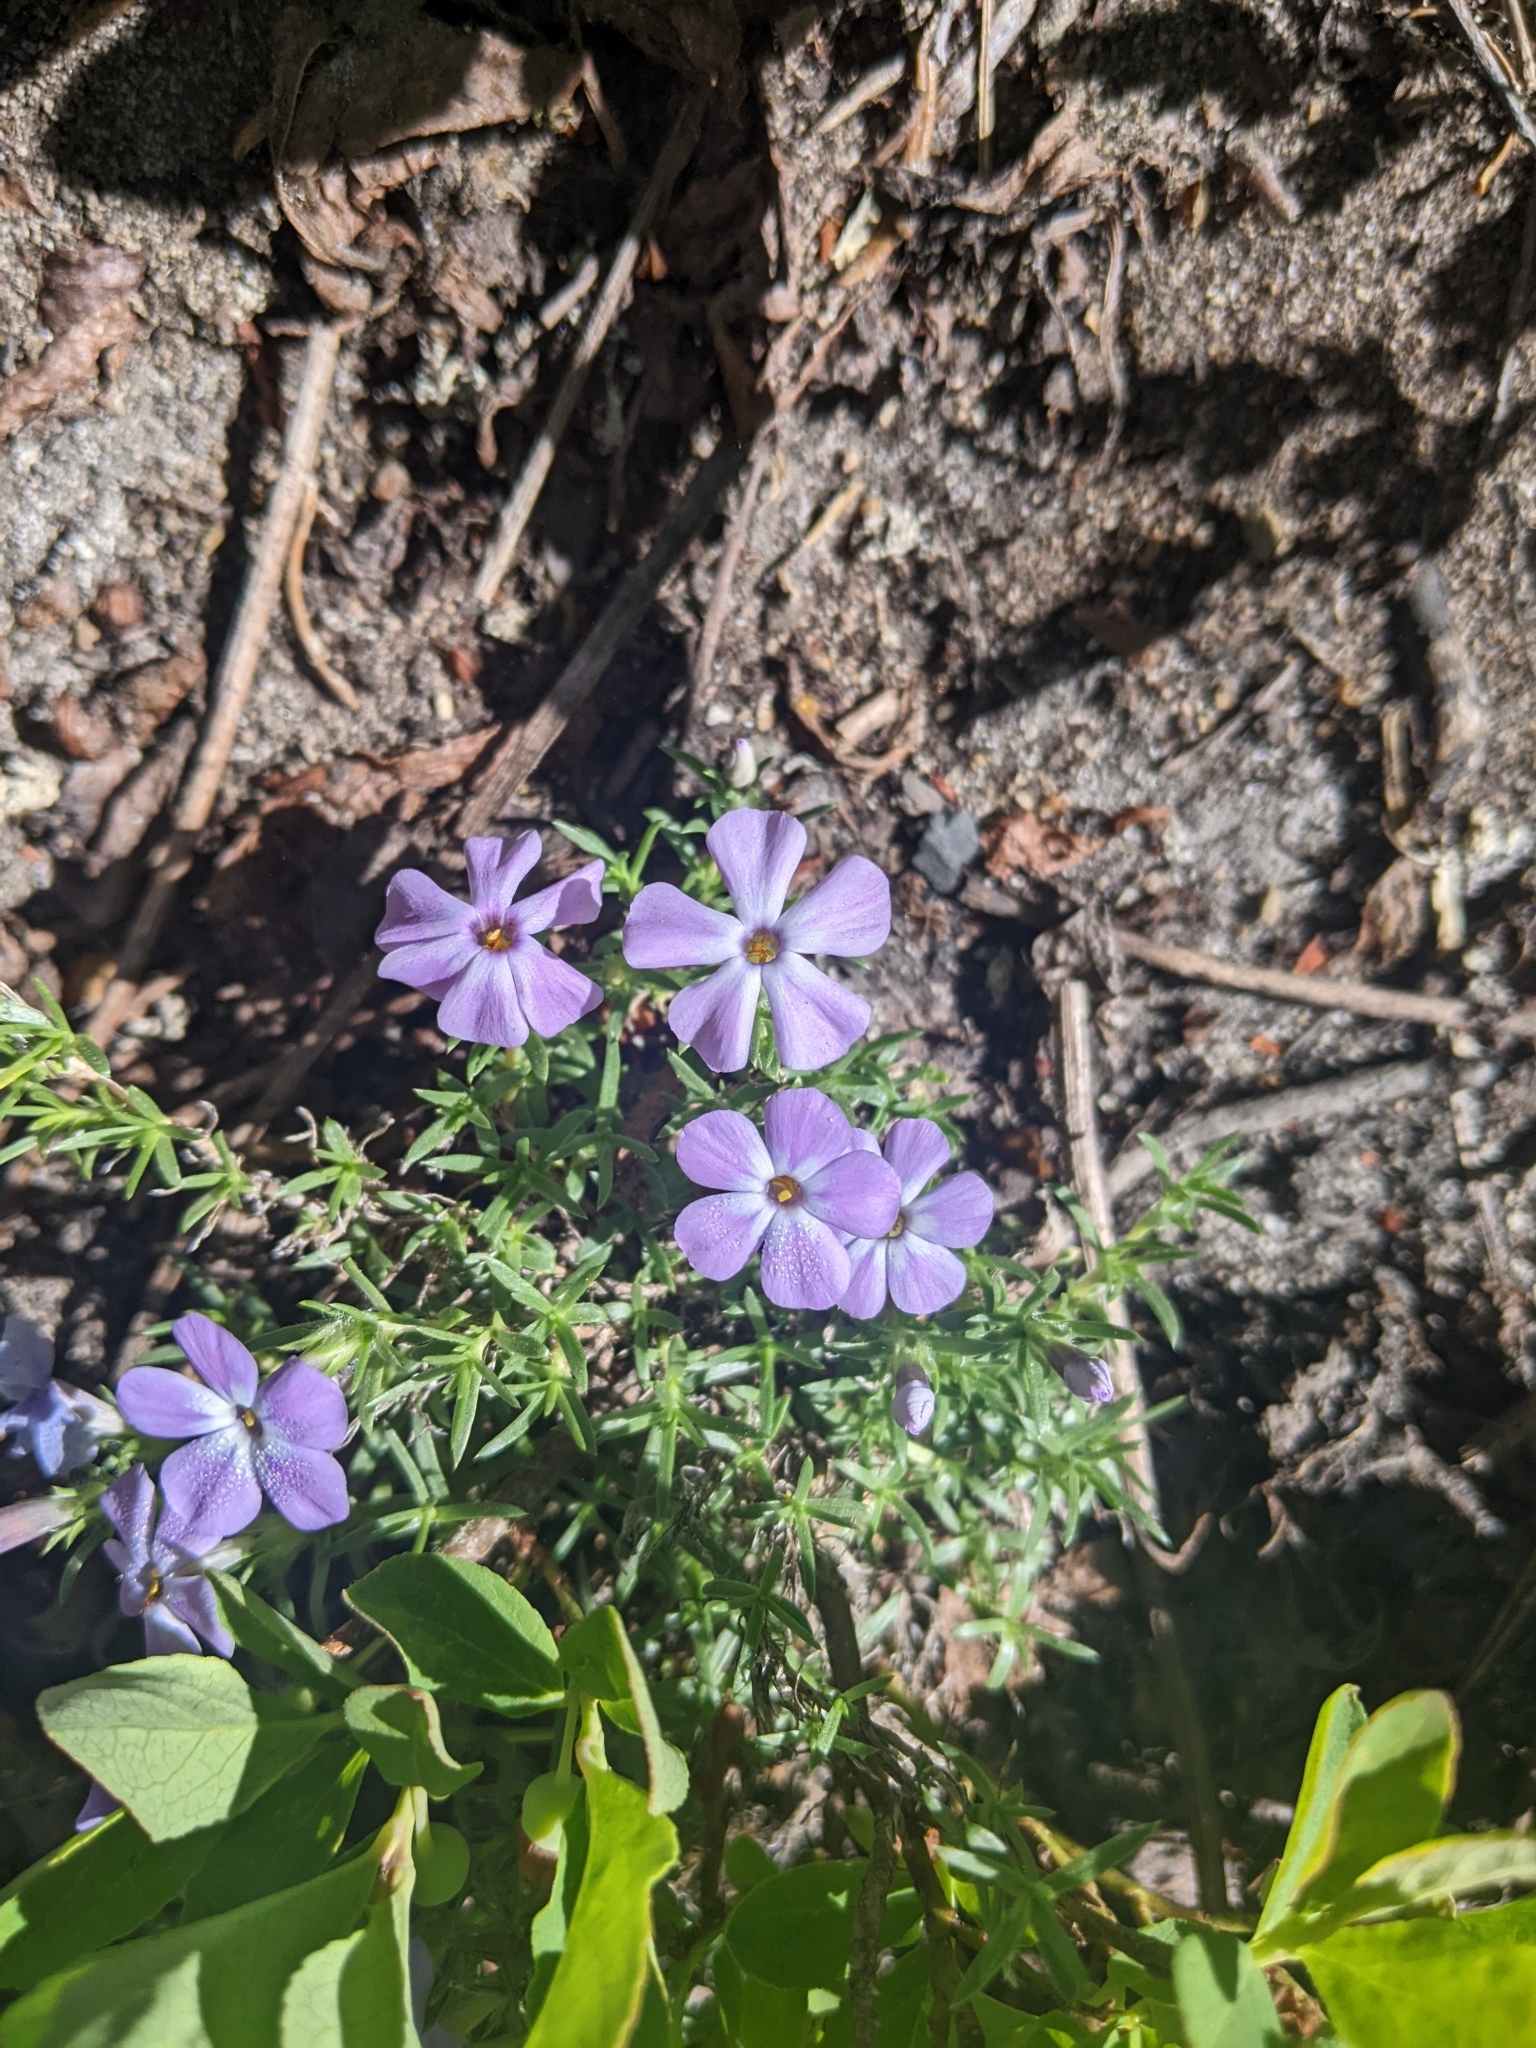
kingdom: Plantae
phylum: Tracheophyta
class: Magnoliopsida
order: Ericales
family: Polemoniaceae
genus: Phlox
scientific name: Phlox diffusa
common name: Mat phlox
